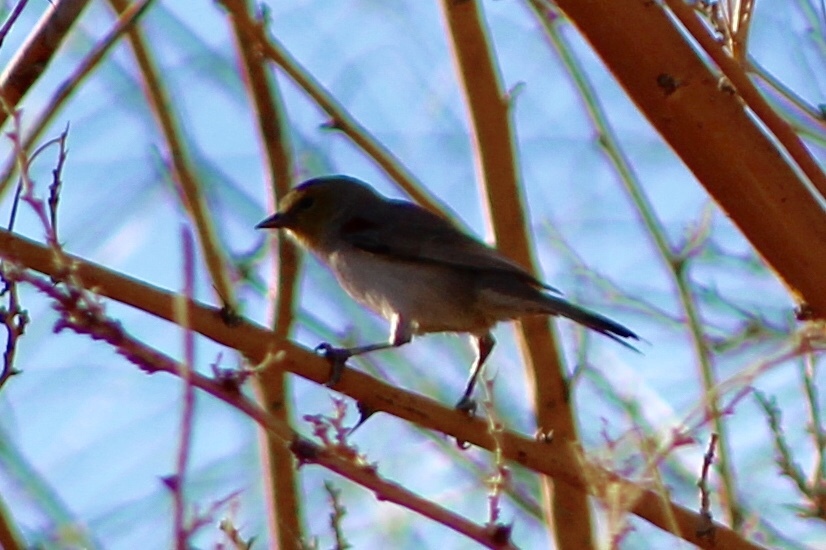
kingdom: Animalia
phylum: Chordata
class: Aves
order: Passeriformes
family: Remizidae
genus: Auriparus
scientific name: Auriparus flaviceps
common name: Verdin
